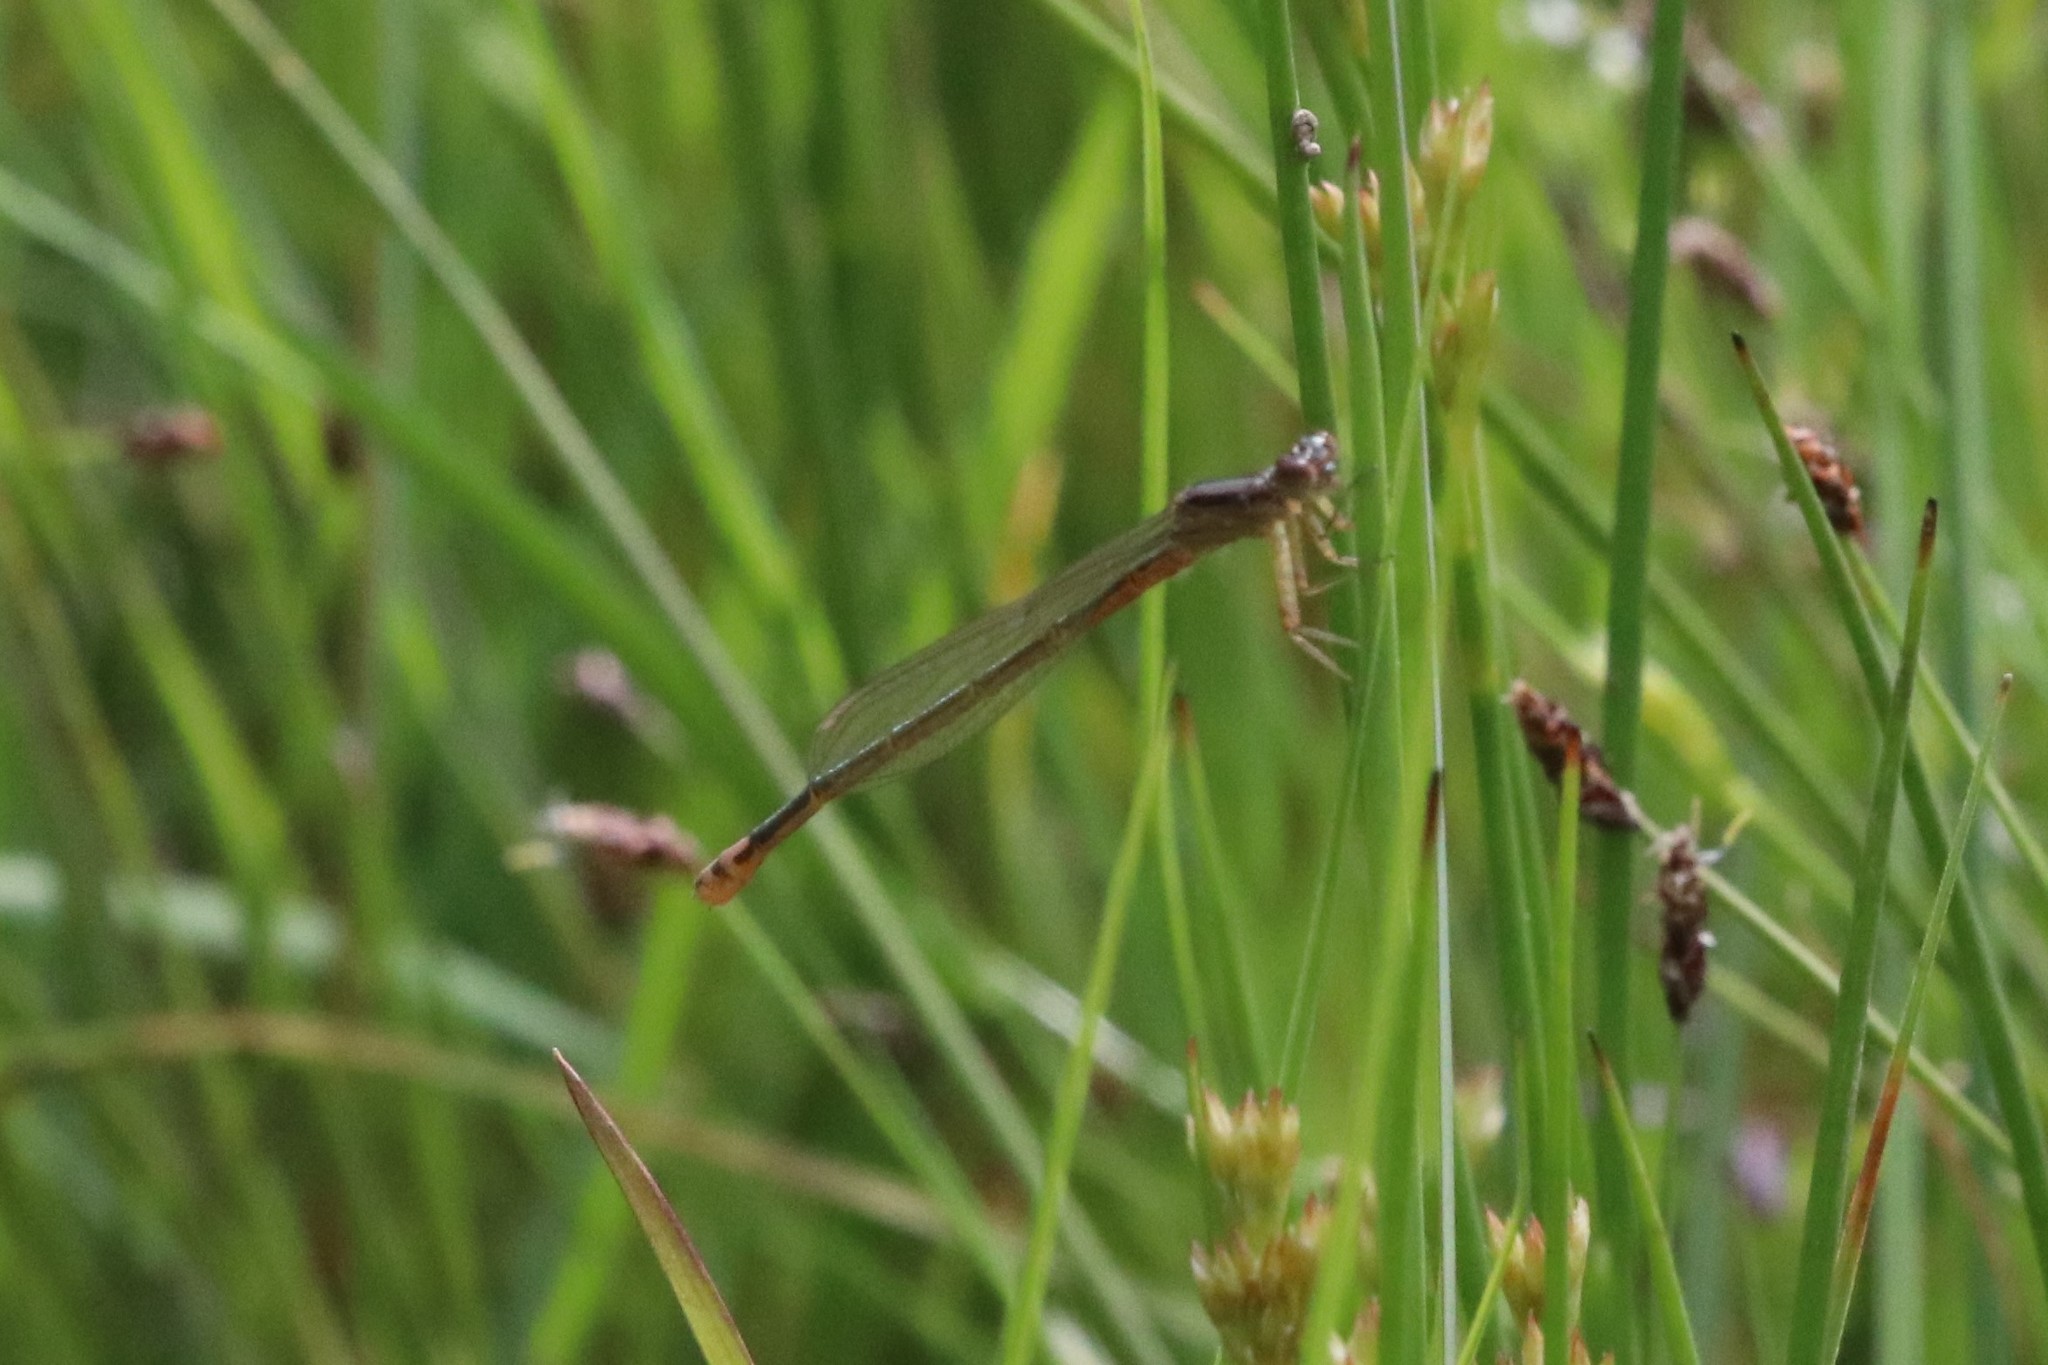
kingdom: Animalia
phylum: Arthropoda
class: Insecta
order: Odonata
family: Coenagrionidae
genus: Ischnura
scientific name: Ischnura verticalis
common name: Eastern forktail
